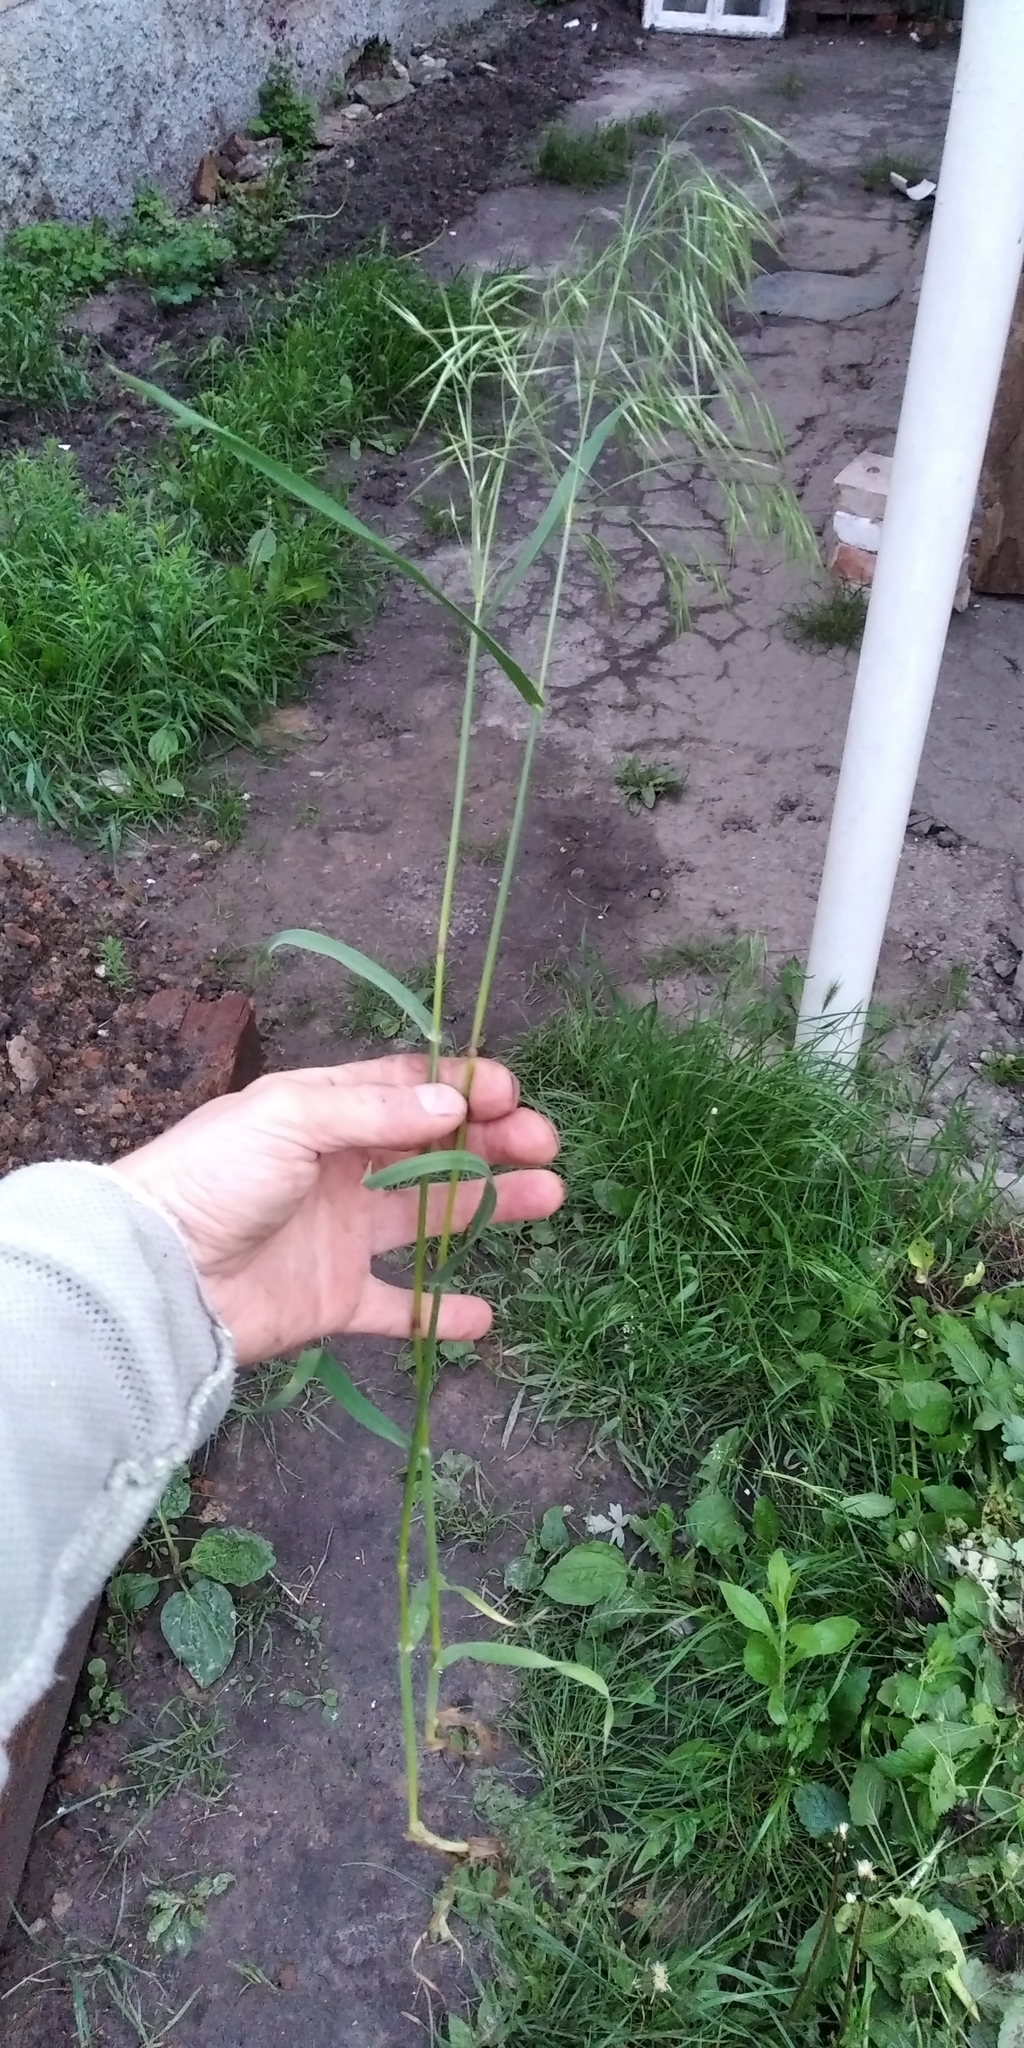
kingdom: Plantae
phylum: Tracheophyta
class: Liliopsida
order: Poales
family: Poaceae
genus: Bromus
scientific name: Bromus tectorum
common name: Cheatgrass
